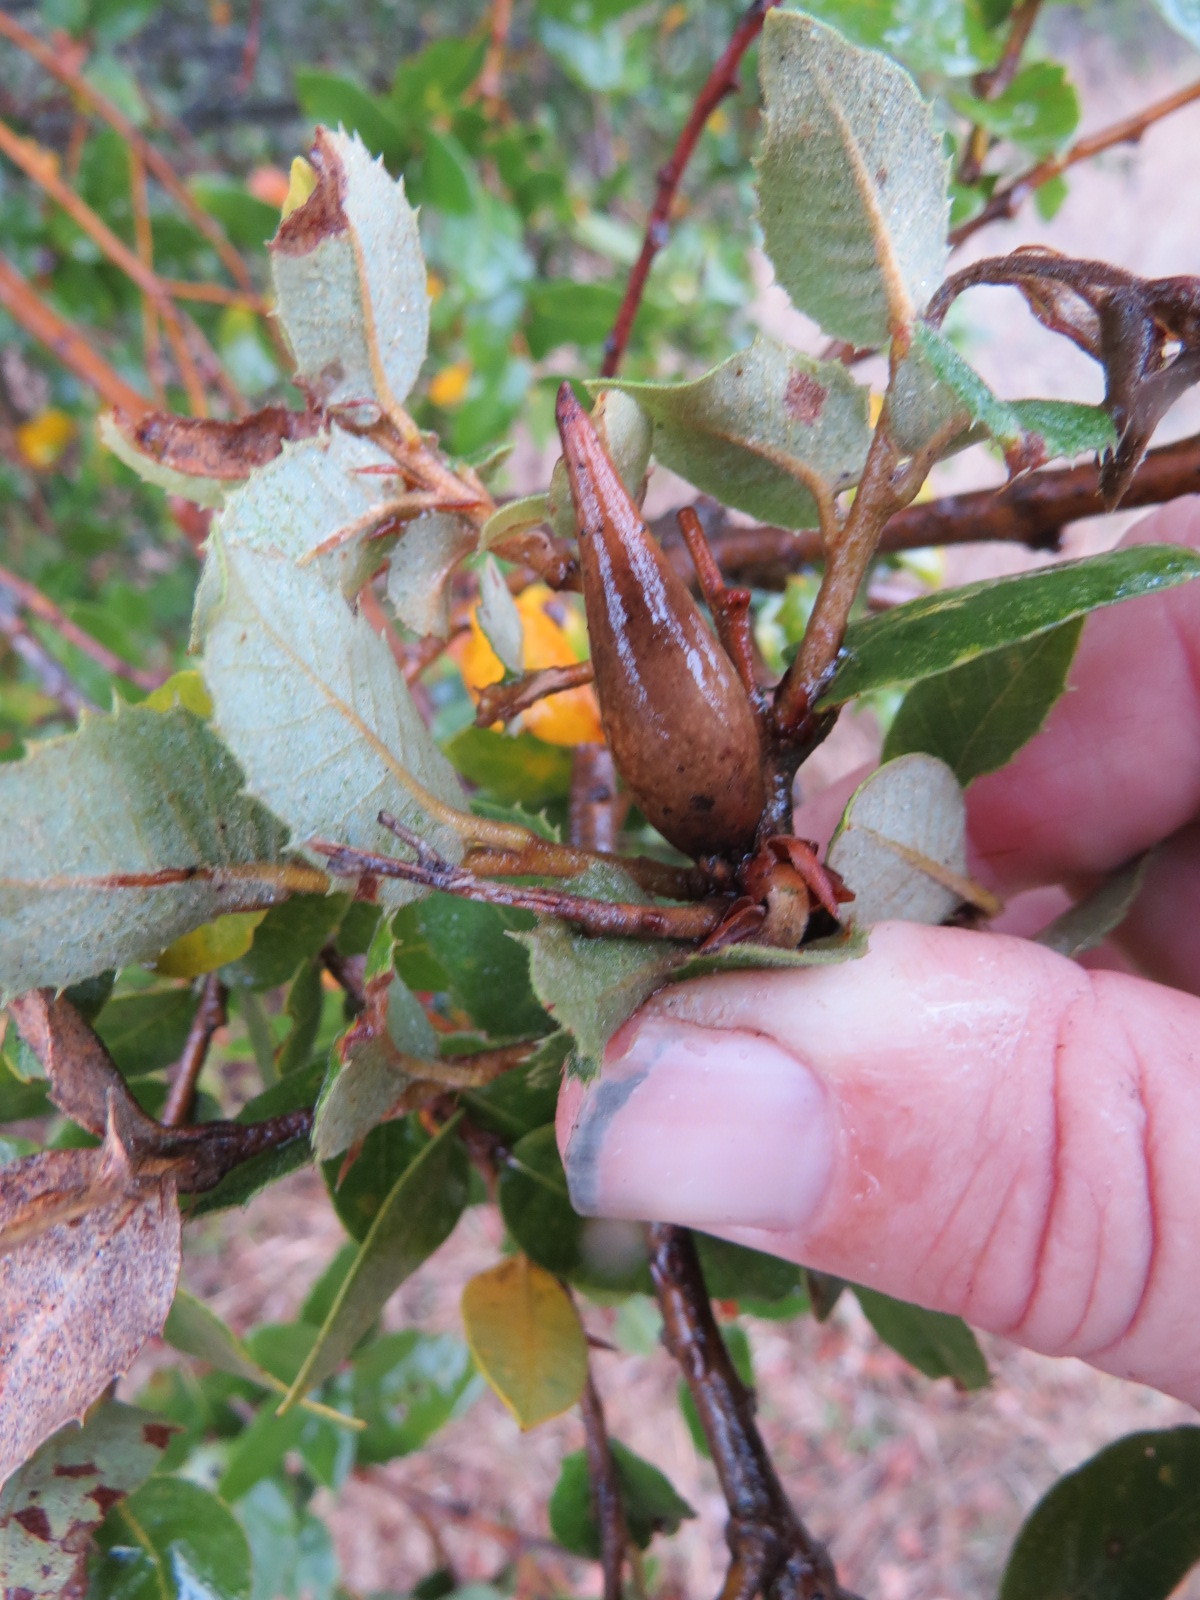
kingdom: Animalia
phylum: Arthropoda
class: Insecta
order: Hymenoptera
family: Cynipidae
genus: Heteroecus
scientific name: Heteroecus pacificus
